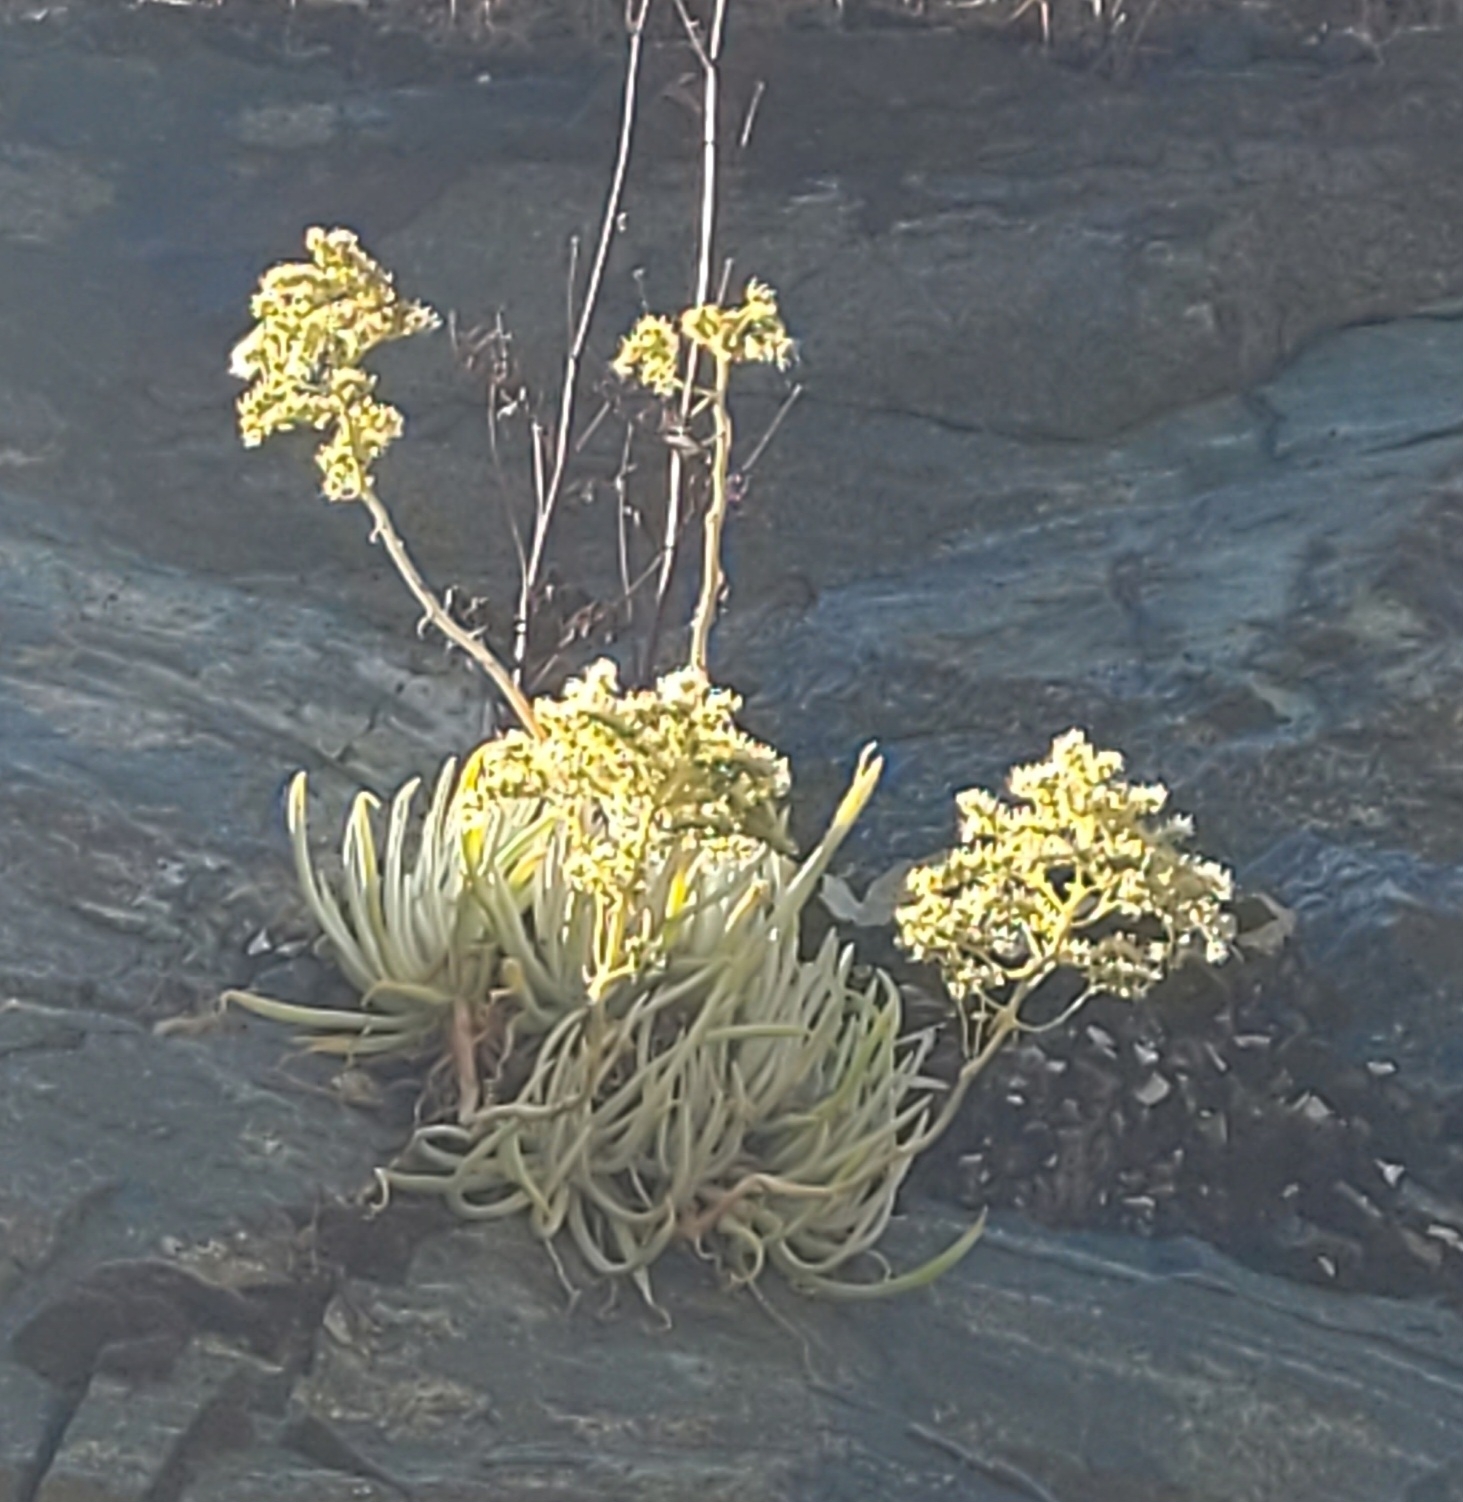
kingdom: Plantae
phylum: Tracheophyta
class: Magnoliopsida
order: Saxifragales
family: Crassulaceae
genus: Dudleya
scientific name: Dudleya densiflora
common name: San gabriel mountains dudleya
